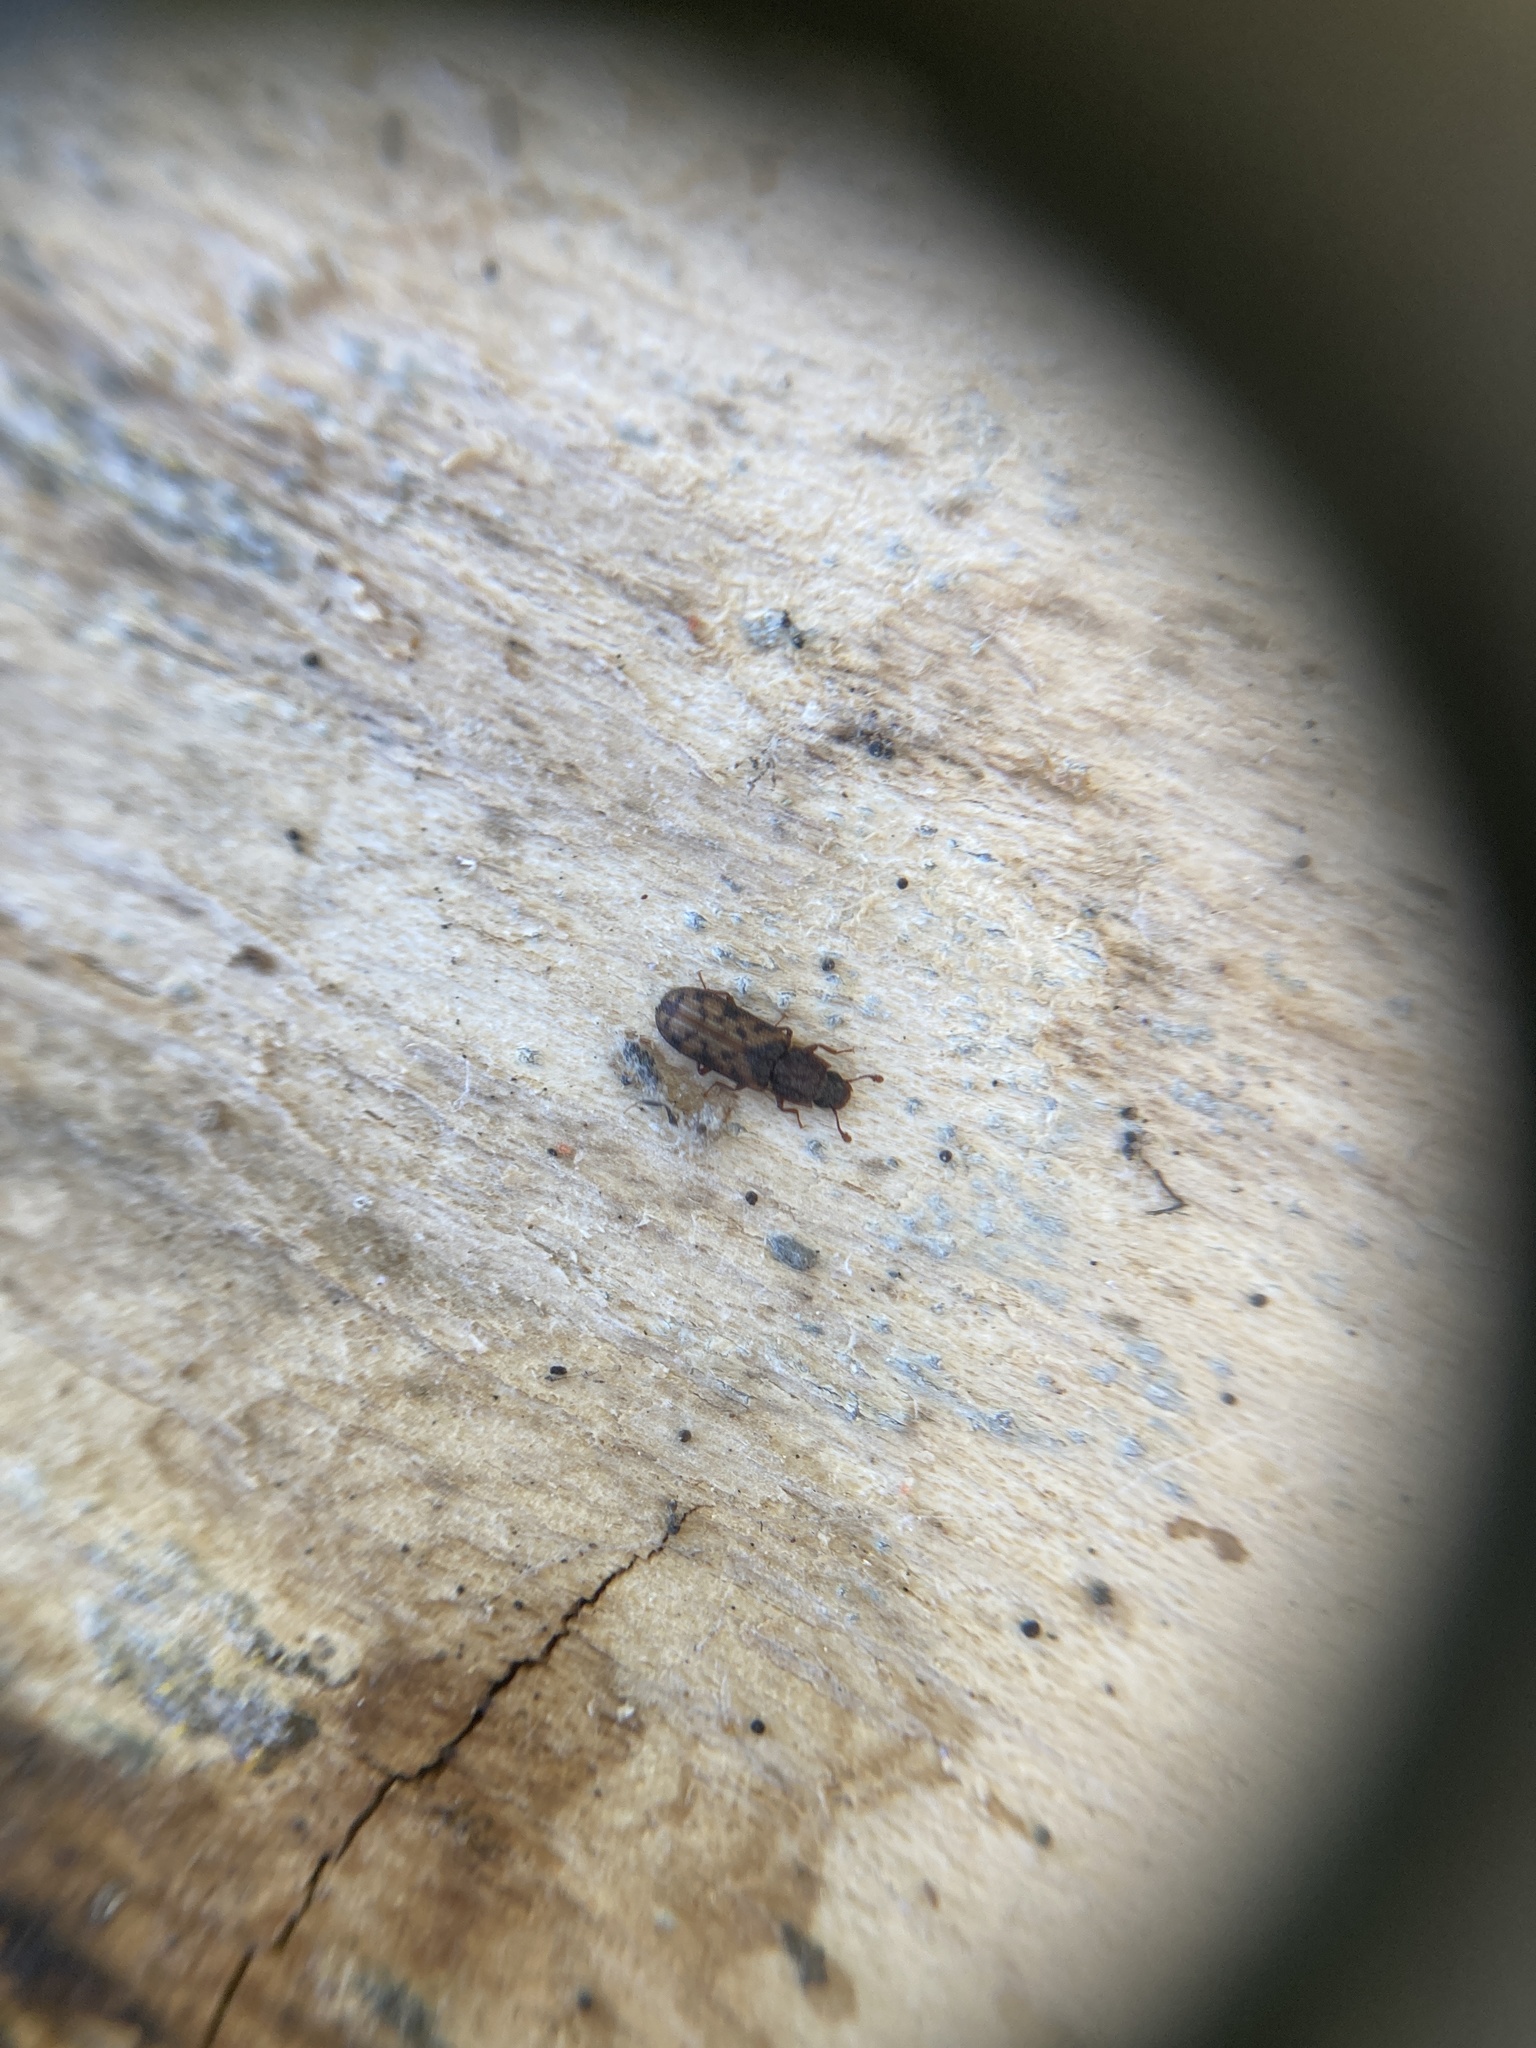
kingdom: Animalia
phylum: Arthropoda
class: Insecta
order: Coleoptera
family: Zopheridae
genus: Bitoma
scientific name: Bitoma insularis
